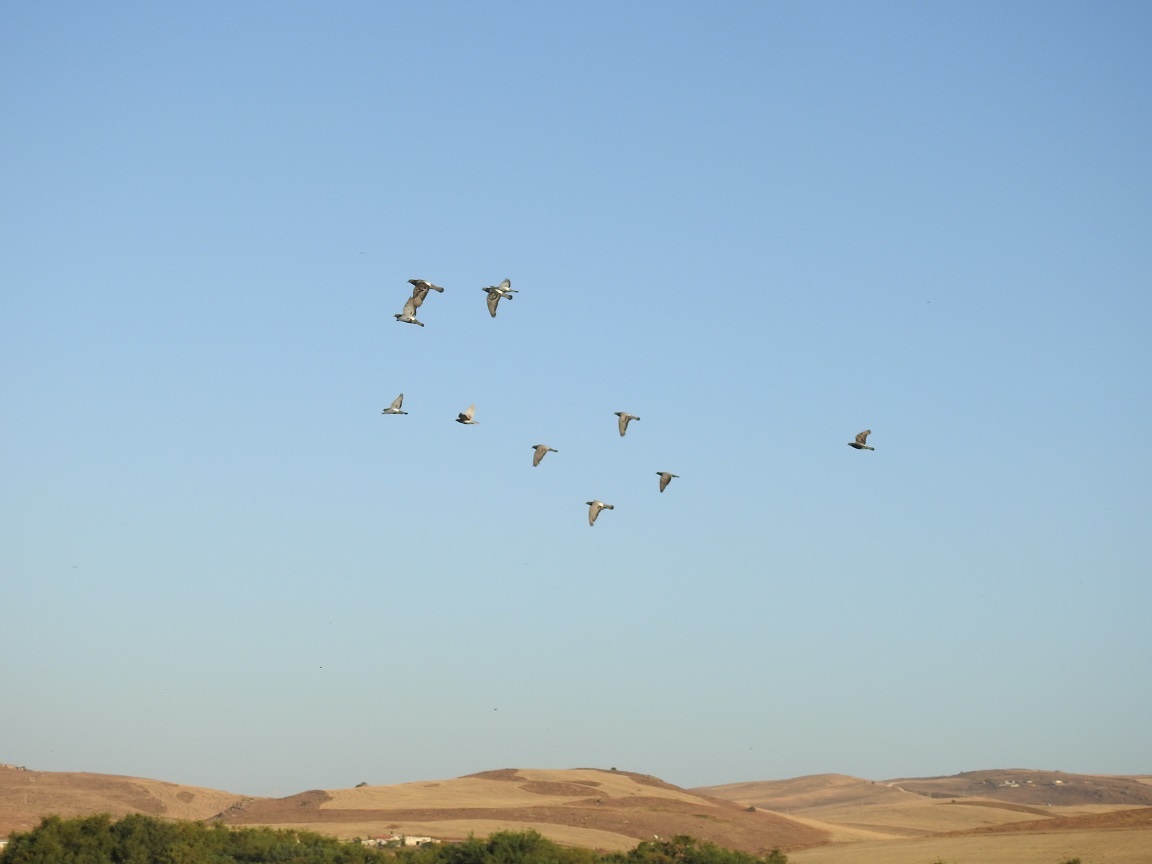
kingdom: Animalia
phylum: Chordata
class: Aves
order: Columbiformes
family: Columbidae
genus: Columba
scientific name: Columba livia
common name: Rock pigeon
